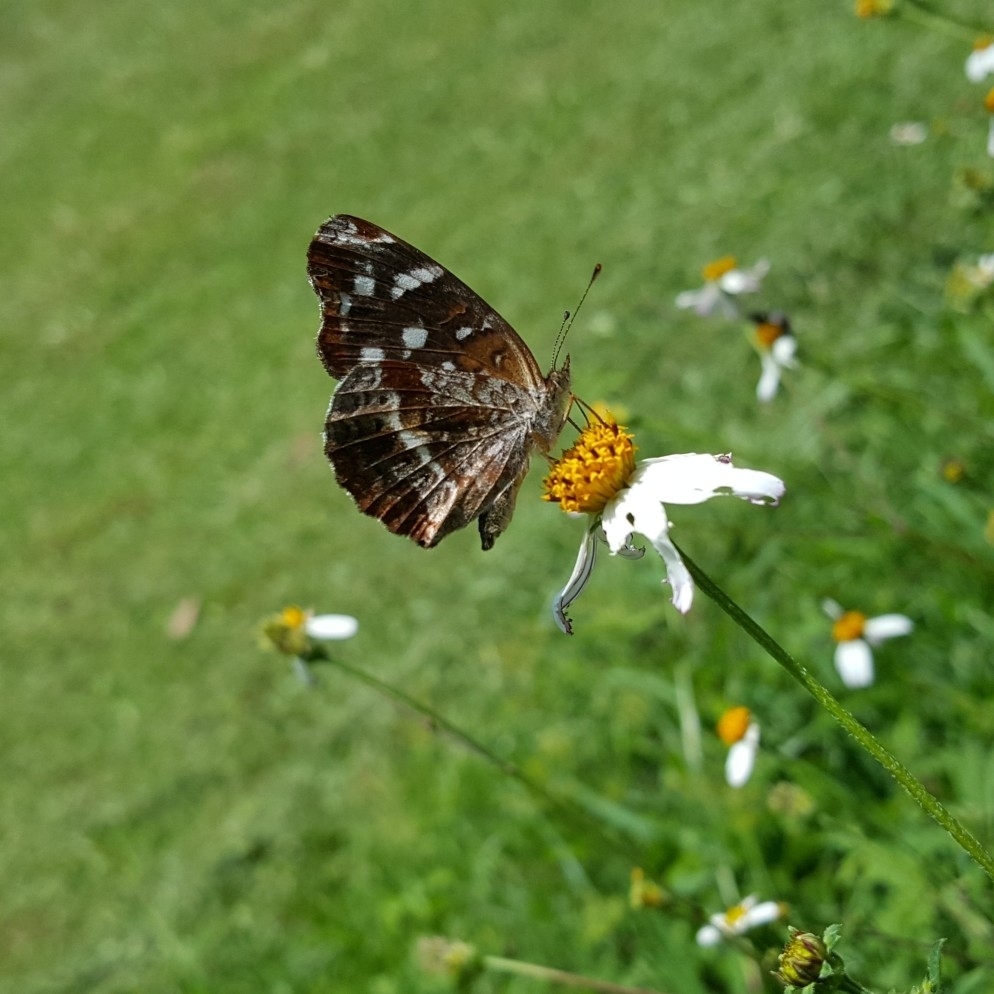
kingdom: Animalia
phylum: Arthropoda
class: Insecta
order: Lepidoptera
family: Nymphalidae
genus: Anthanassa
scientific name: Anthanassa texana
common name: Texan crescent
